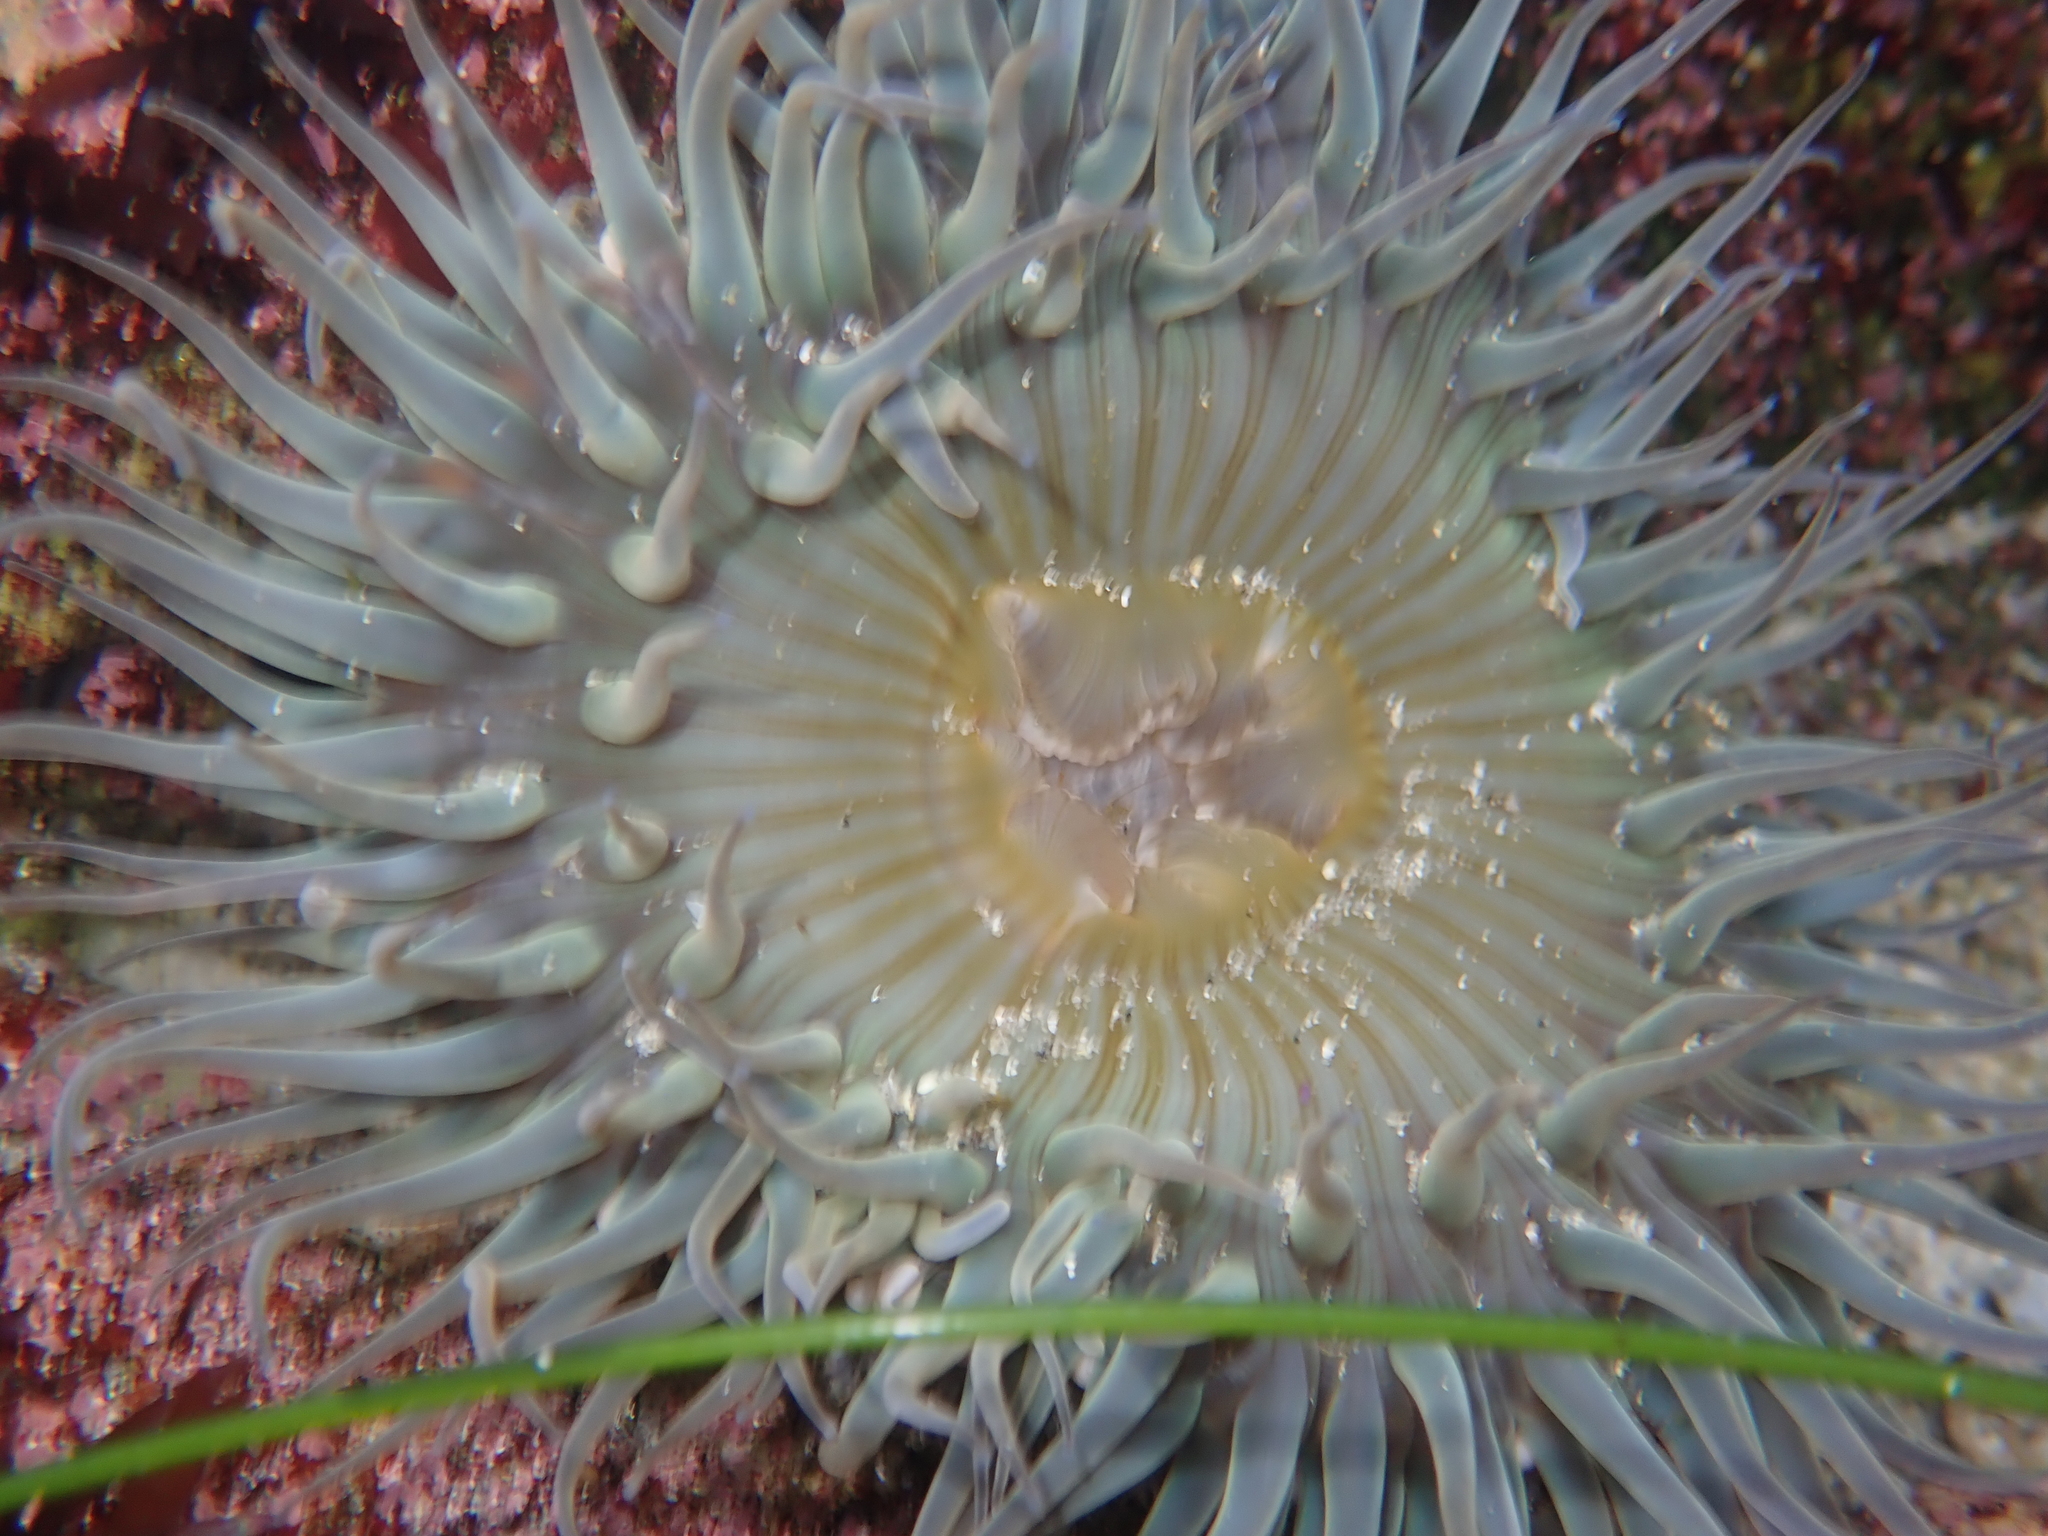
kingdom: Animalia
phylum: Cnidaria
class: Anthozoa
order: Actiniaria
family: Actiniidae
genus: Anthopleura
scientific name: Anthopleura sola
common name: Sun anemone
